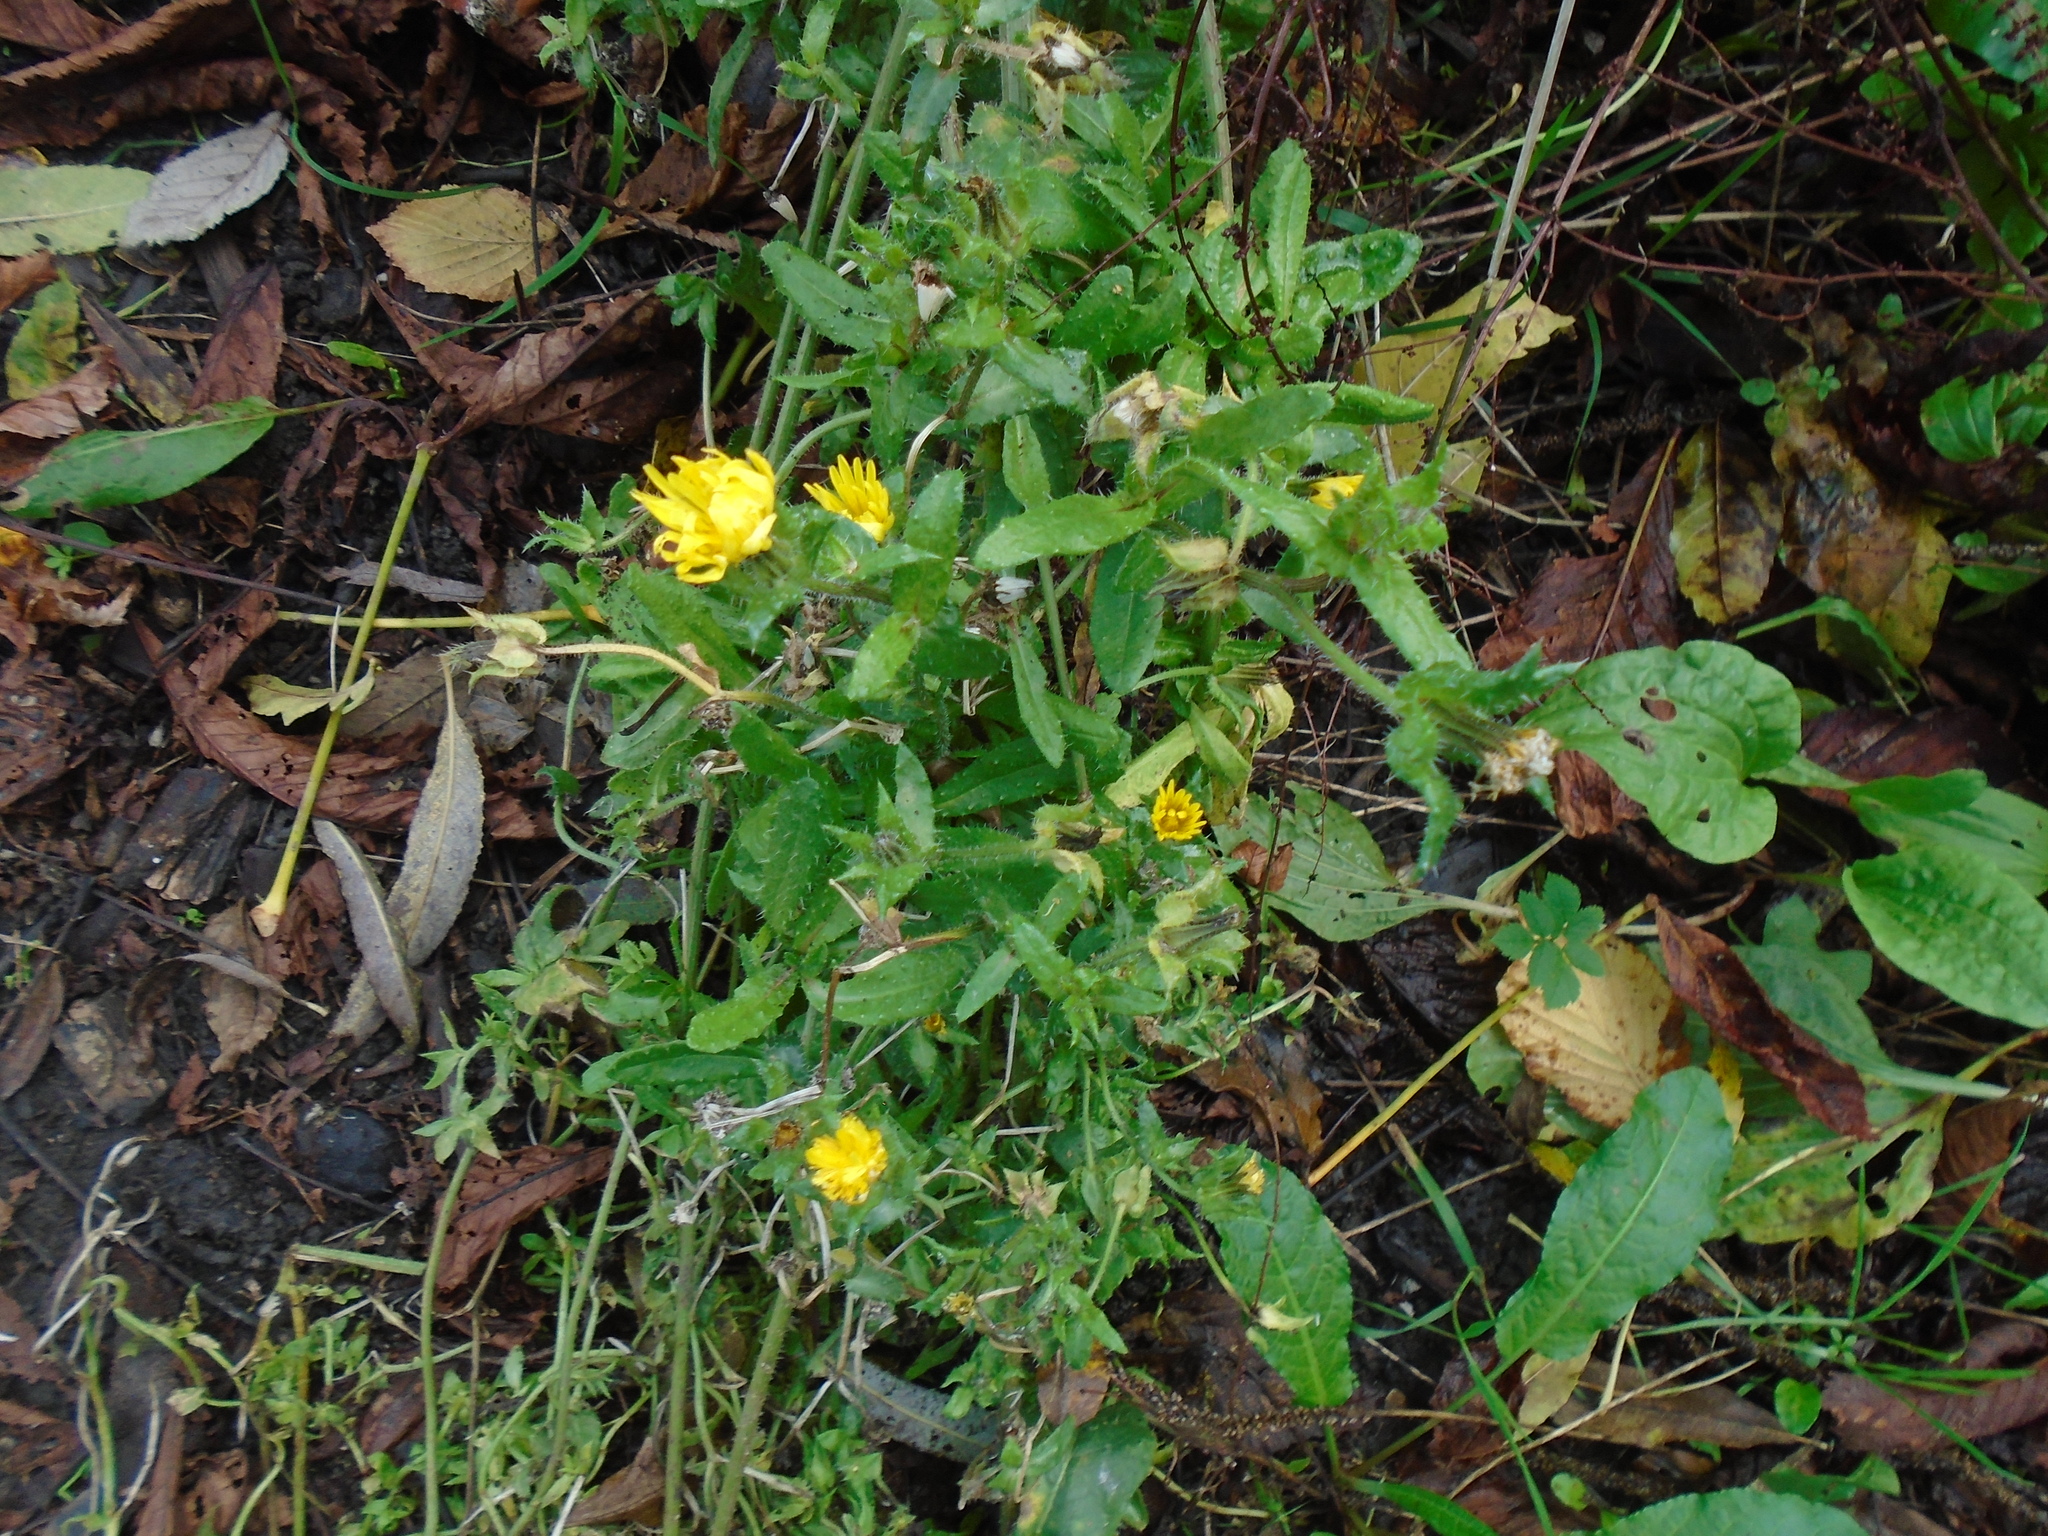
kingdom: Plantae
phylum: Tracheophyta
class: Magnoliopsida
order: Asterales
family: Asteraceae
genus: Helminthotheca
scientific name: Helminthotheca echioides
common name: Ox-tongue
